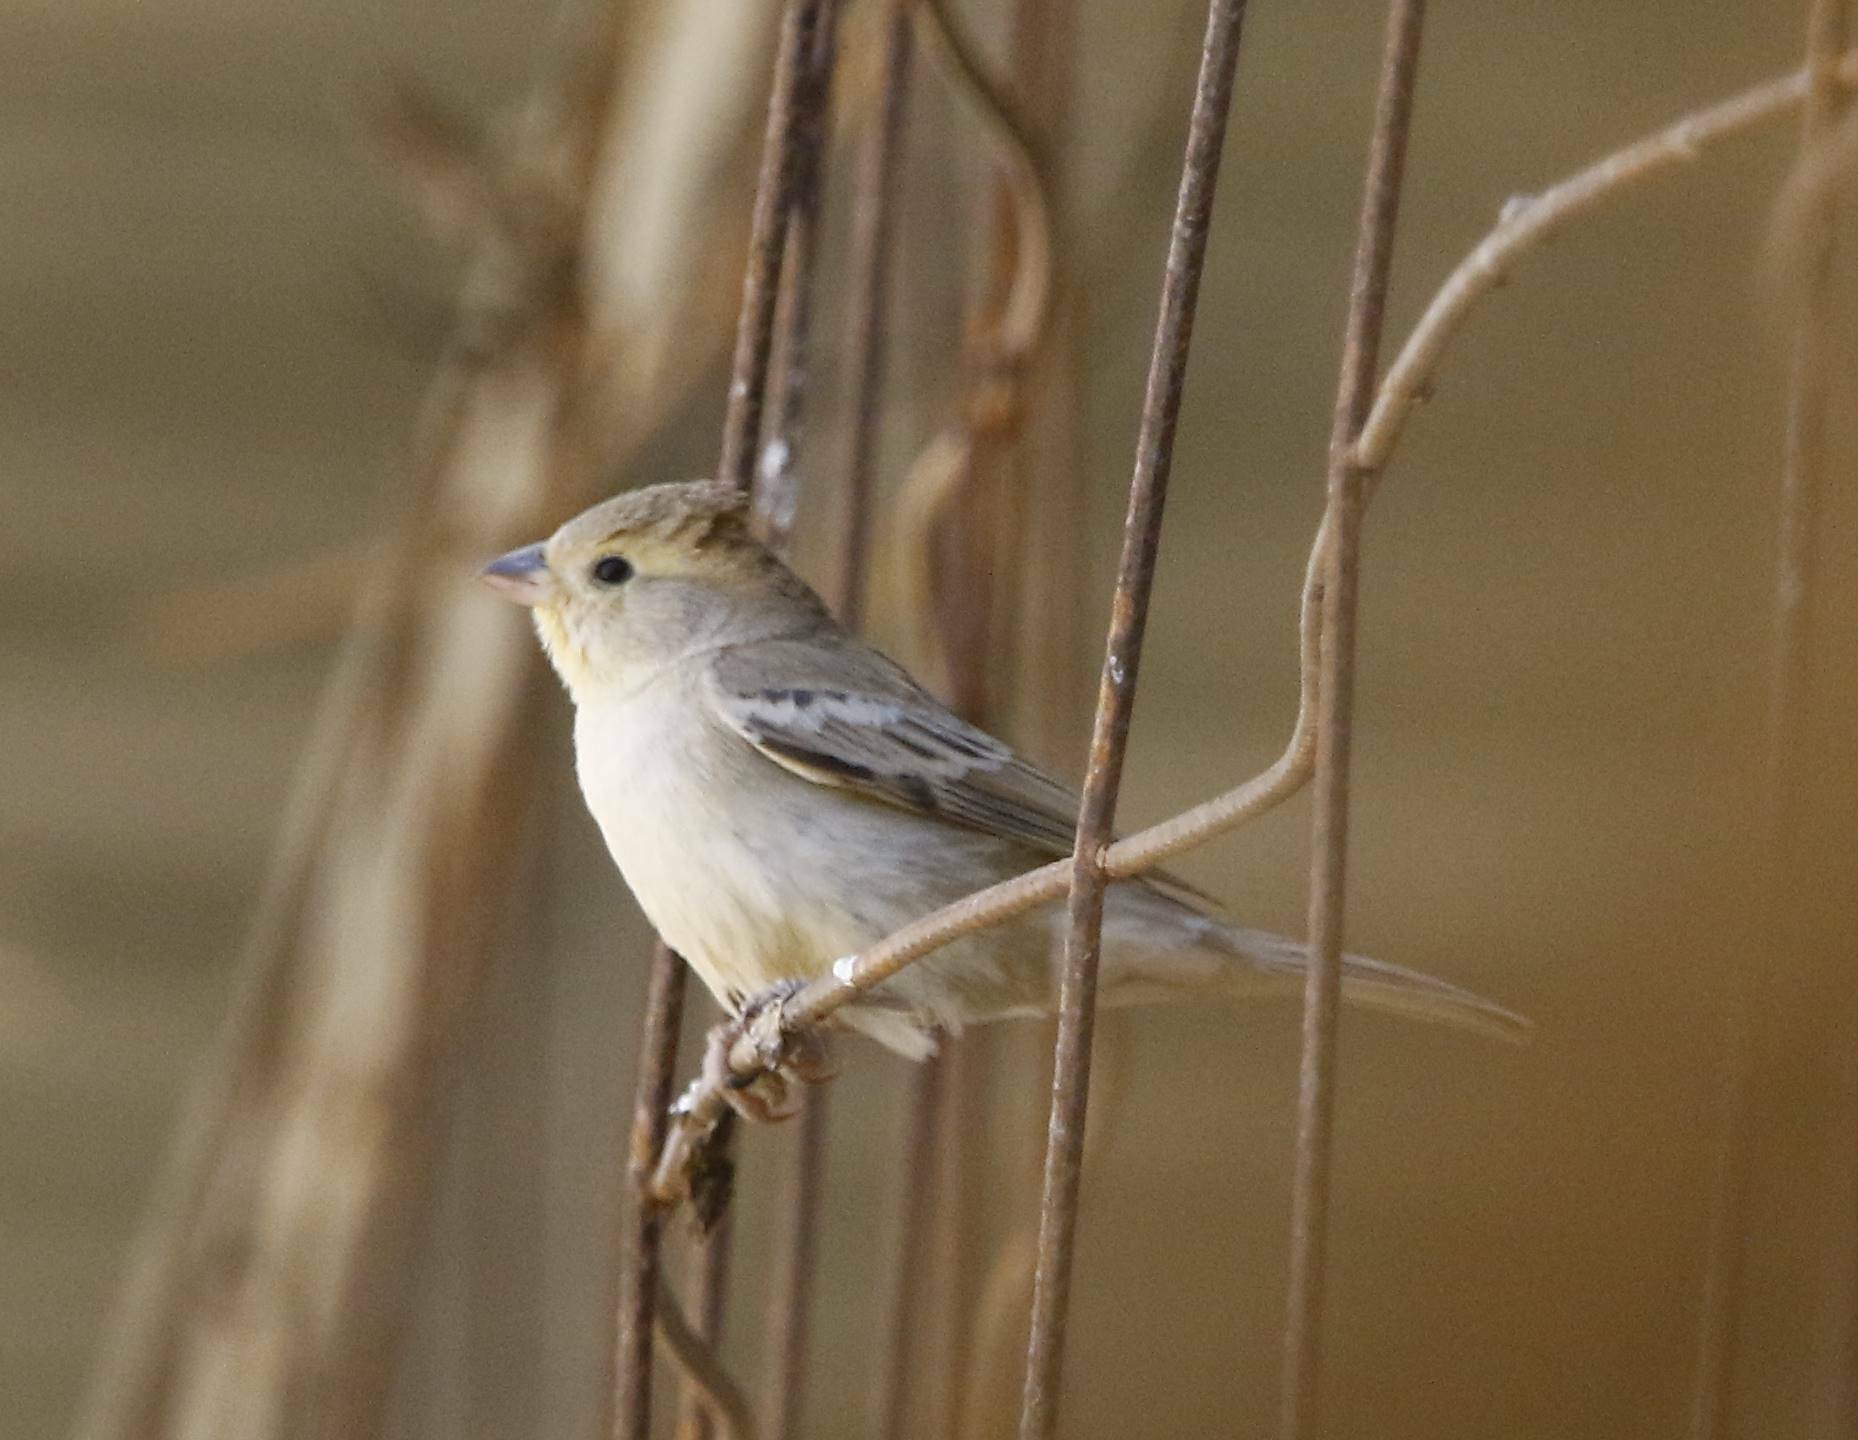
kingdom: Animalia
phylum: Chordata
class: Aves
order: Passeriformes
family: Passeridae
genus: Passer
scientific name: Passer luteus
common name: Sudan golden sparrow
